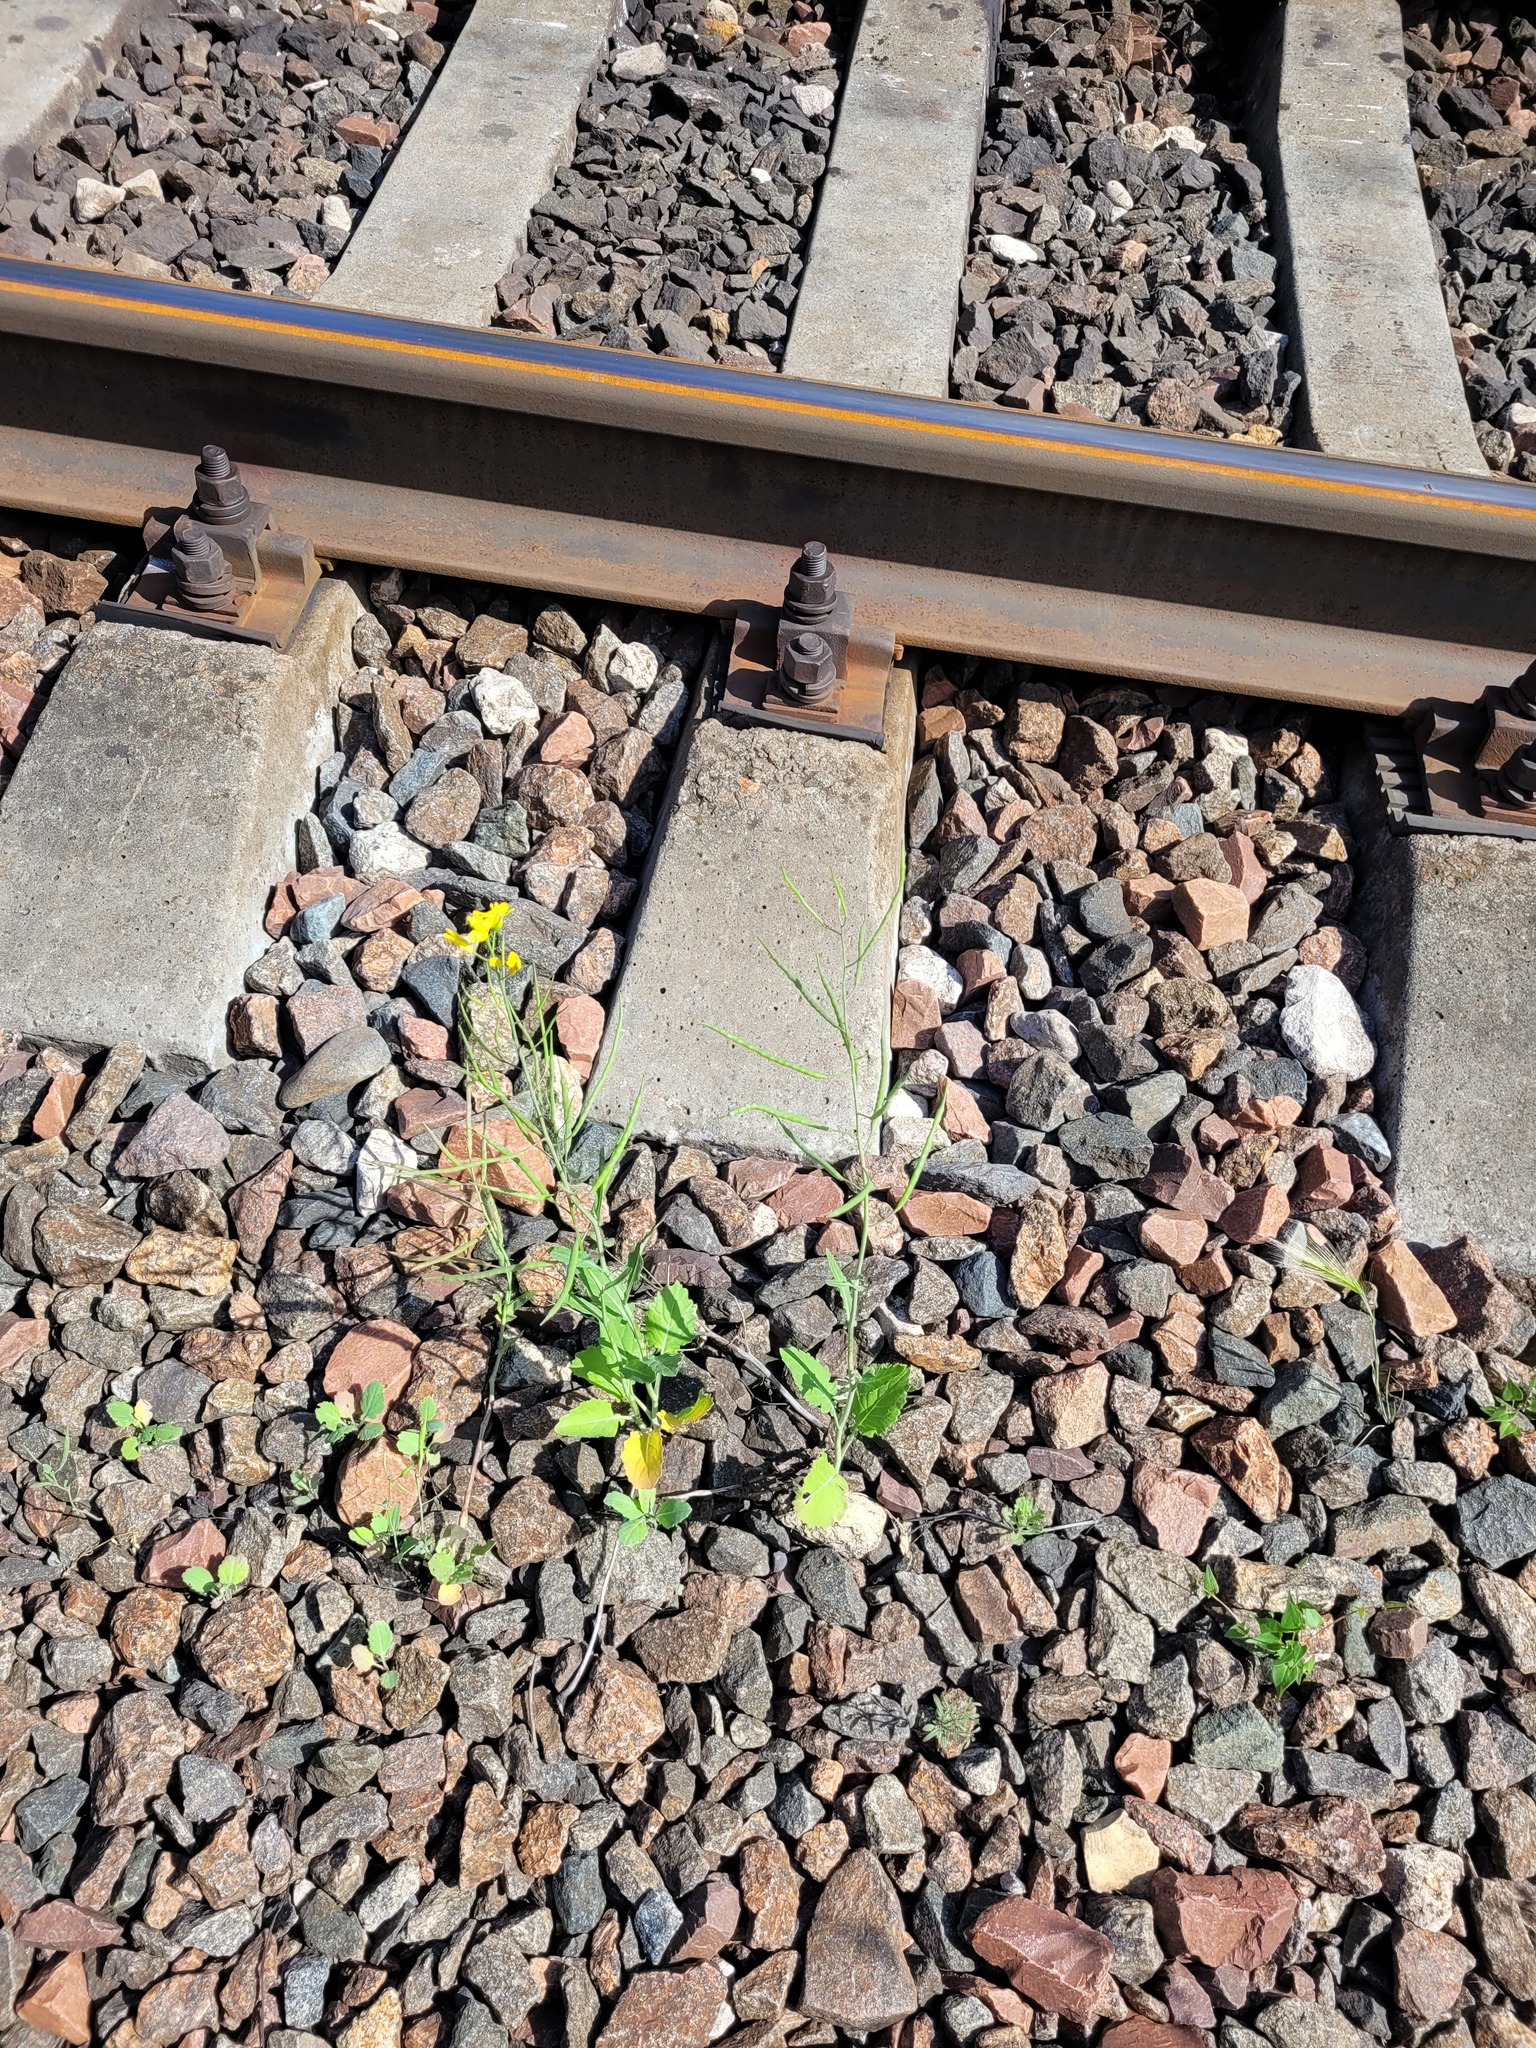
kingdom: Plantae
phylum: Tracheophyta
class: Magnoliopsida
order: Brassicales
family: Brassicaceae
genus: Brassica
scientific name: Brassica napus
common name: Rape
